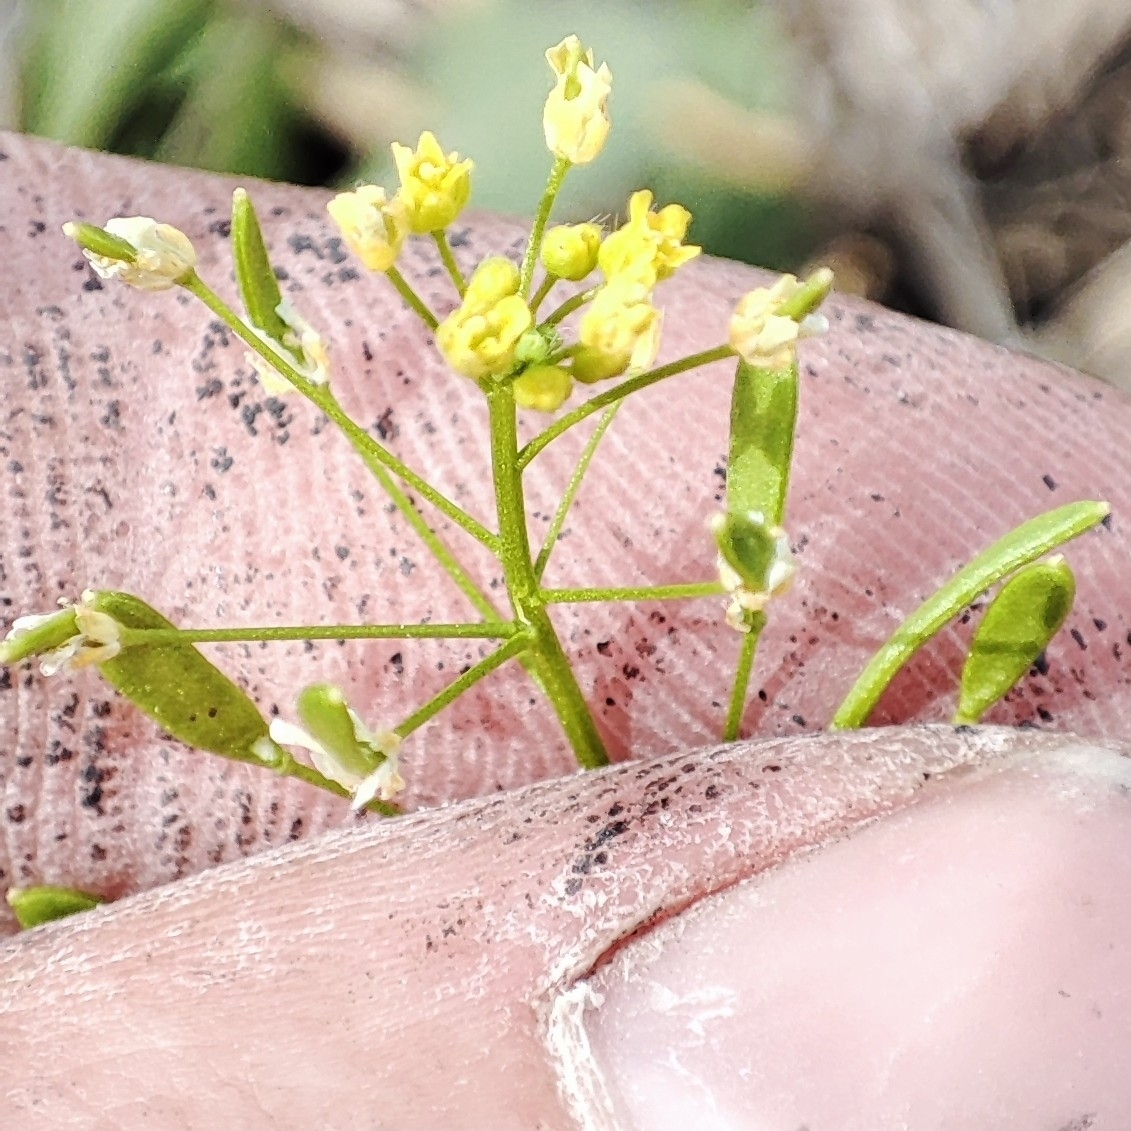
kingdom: Plantae
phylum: Tracheophyta
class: Magnoliopsida
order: Brassicales
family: Brassicaceae
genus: Draba
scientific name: Draba nemorosa
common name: Wood whitlow-grass
